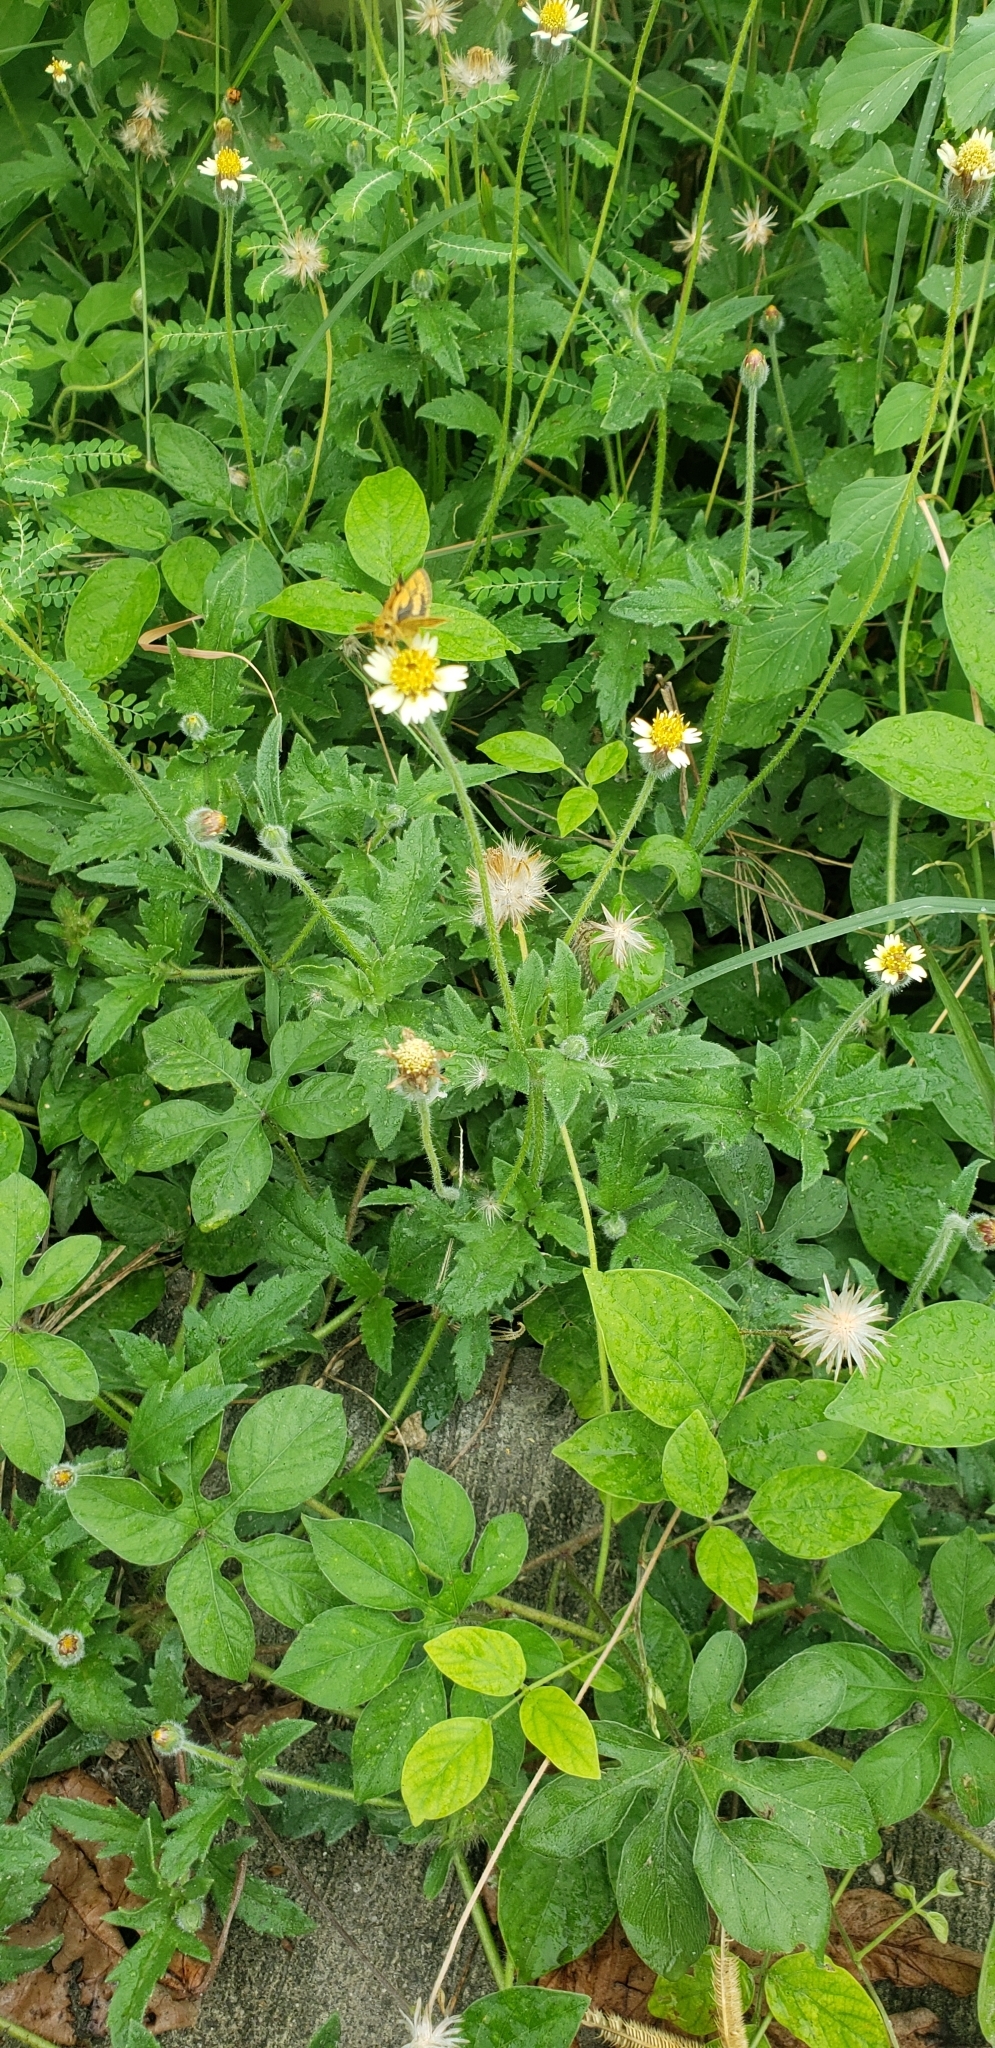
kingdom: Plantae
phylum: Tracheophyta
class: Magnoliopsida
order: Asterales
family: Asteraceae
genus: Tridax
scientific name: Tridax procumbens
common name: Coatbuttons
